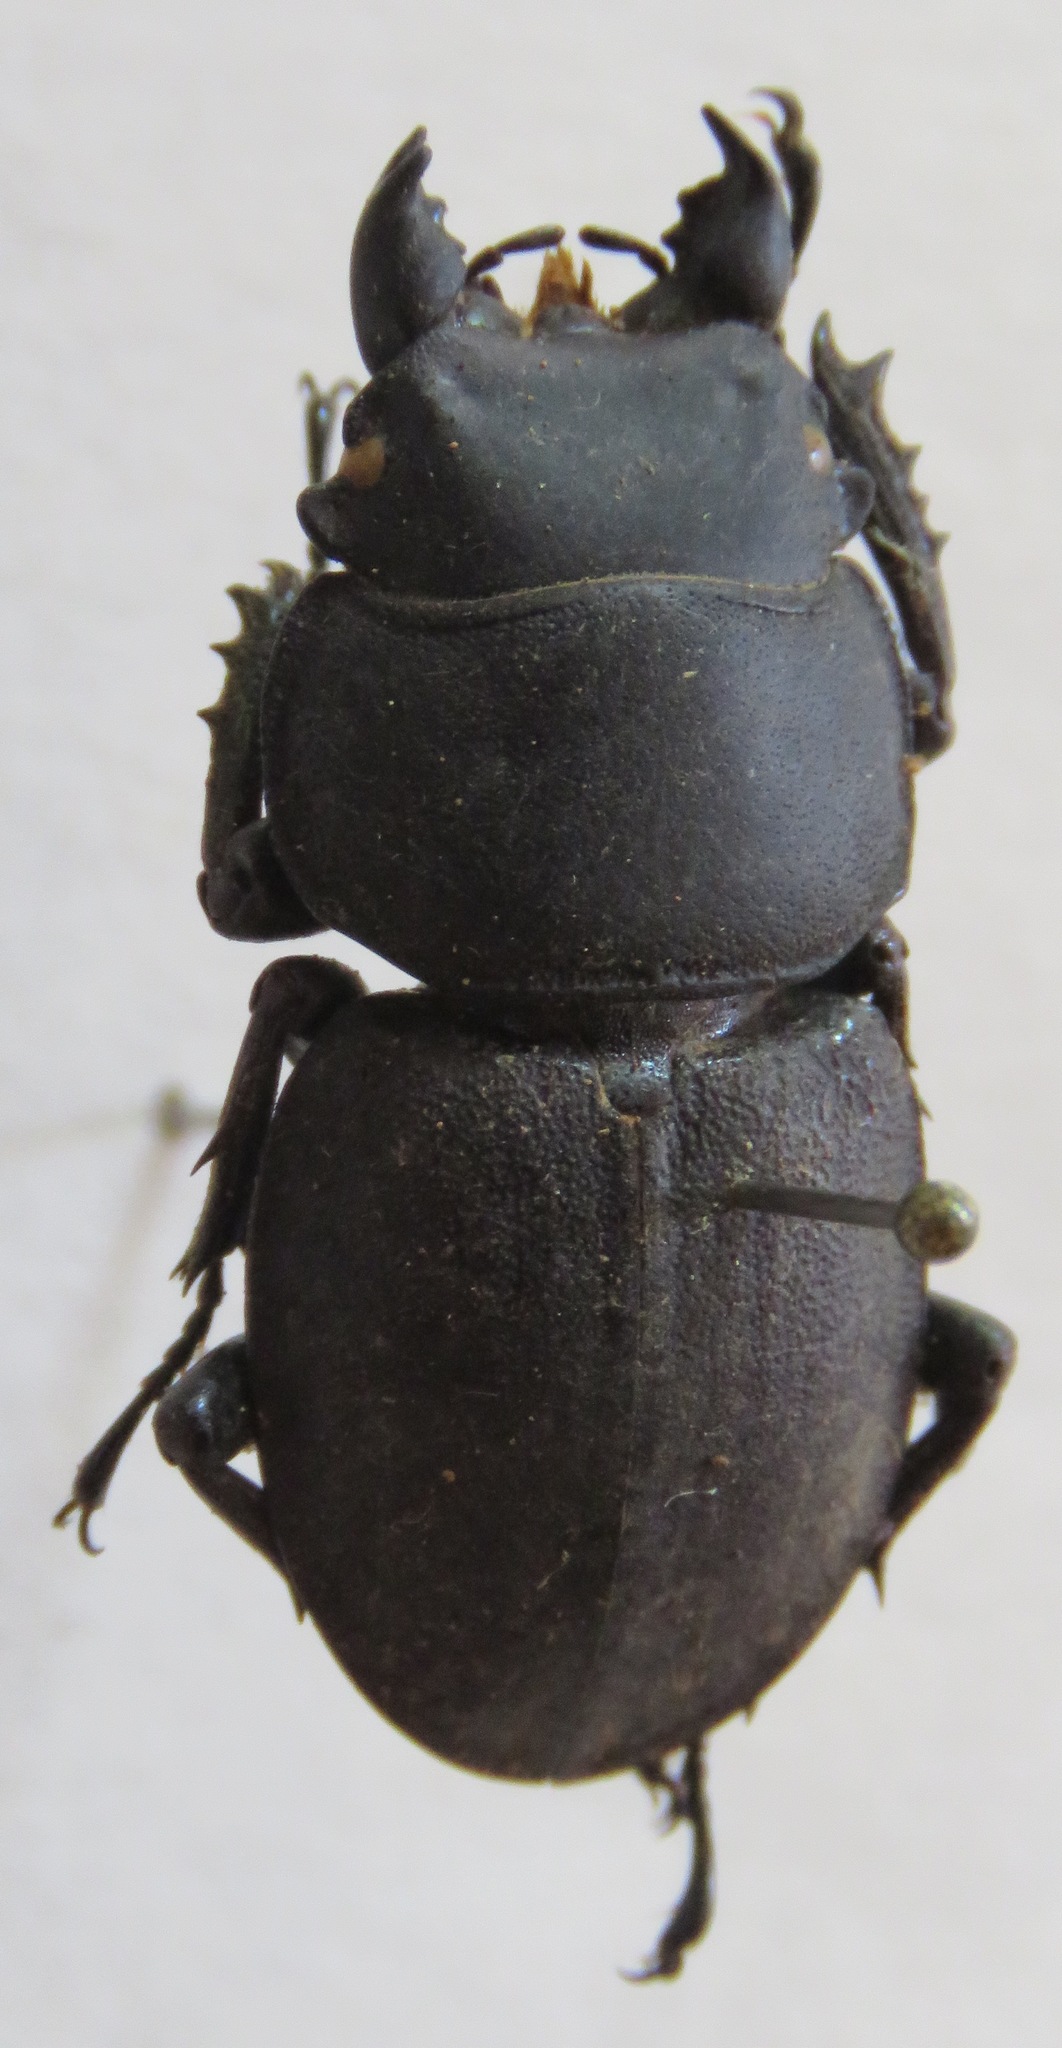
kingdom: Animalia
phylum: Arthropoda
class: Insecta
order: Coleoptera
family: Lucanidae
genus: Apterodorcus
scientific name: Apterodorcus bacchus
